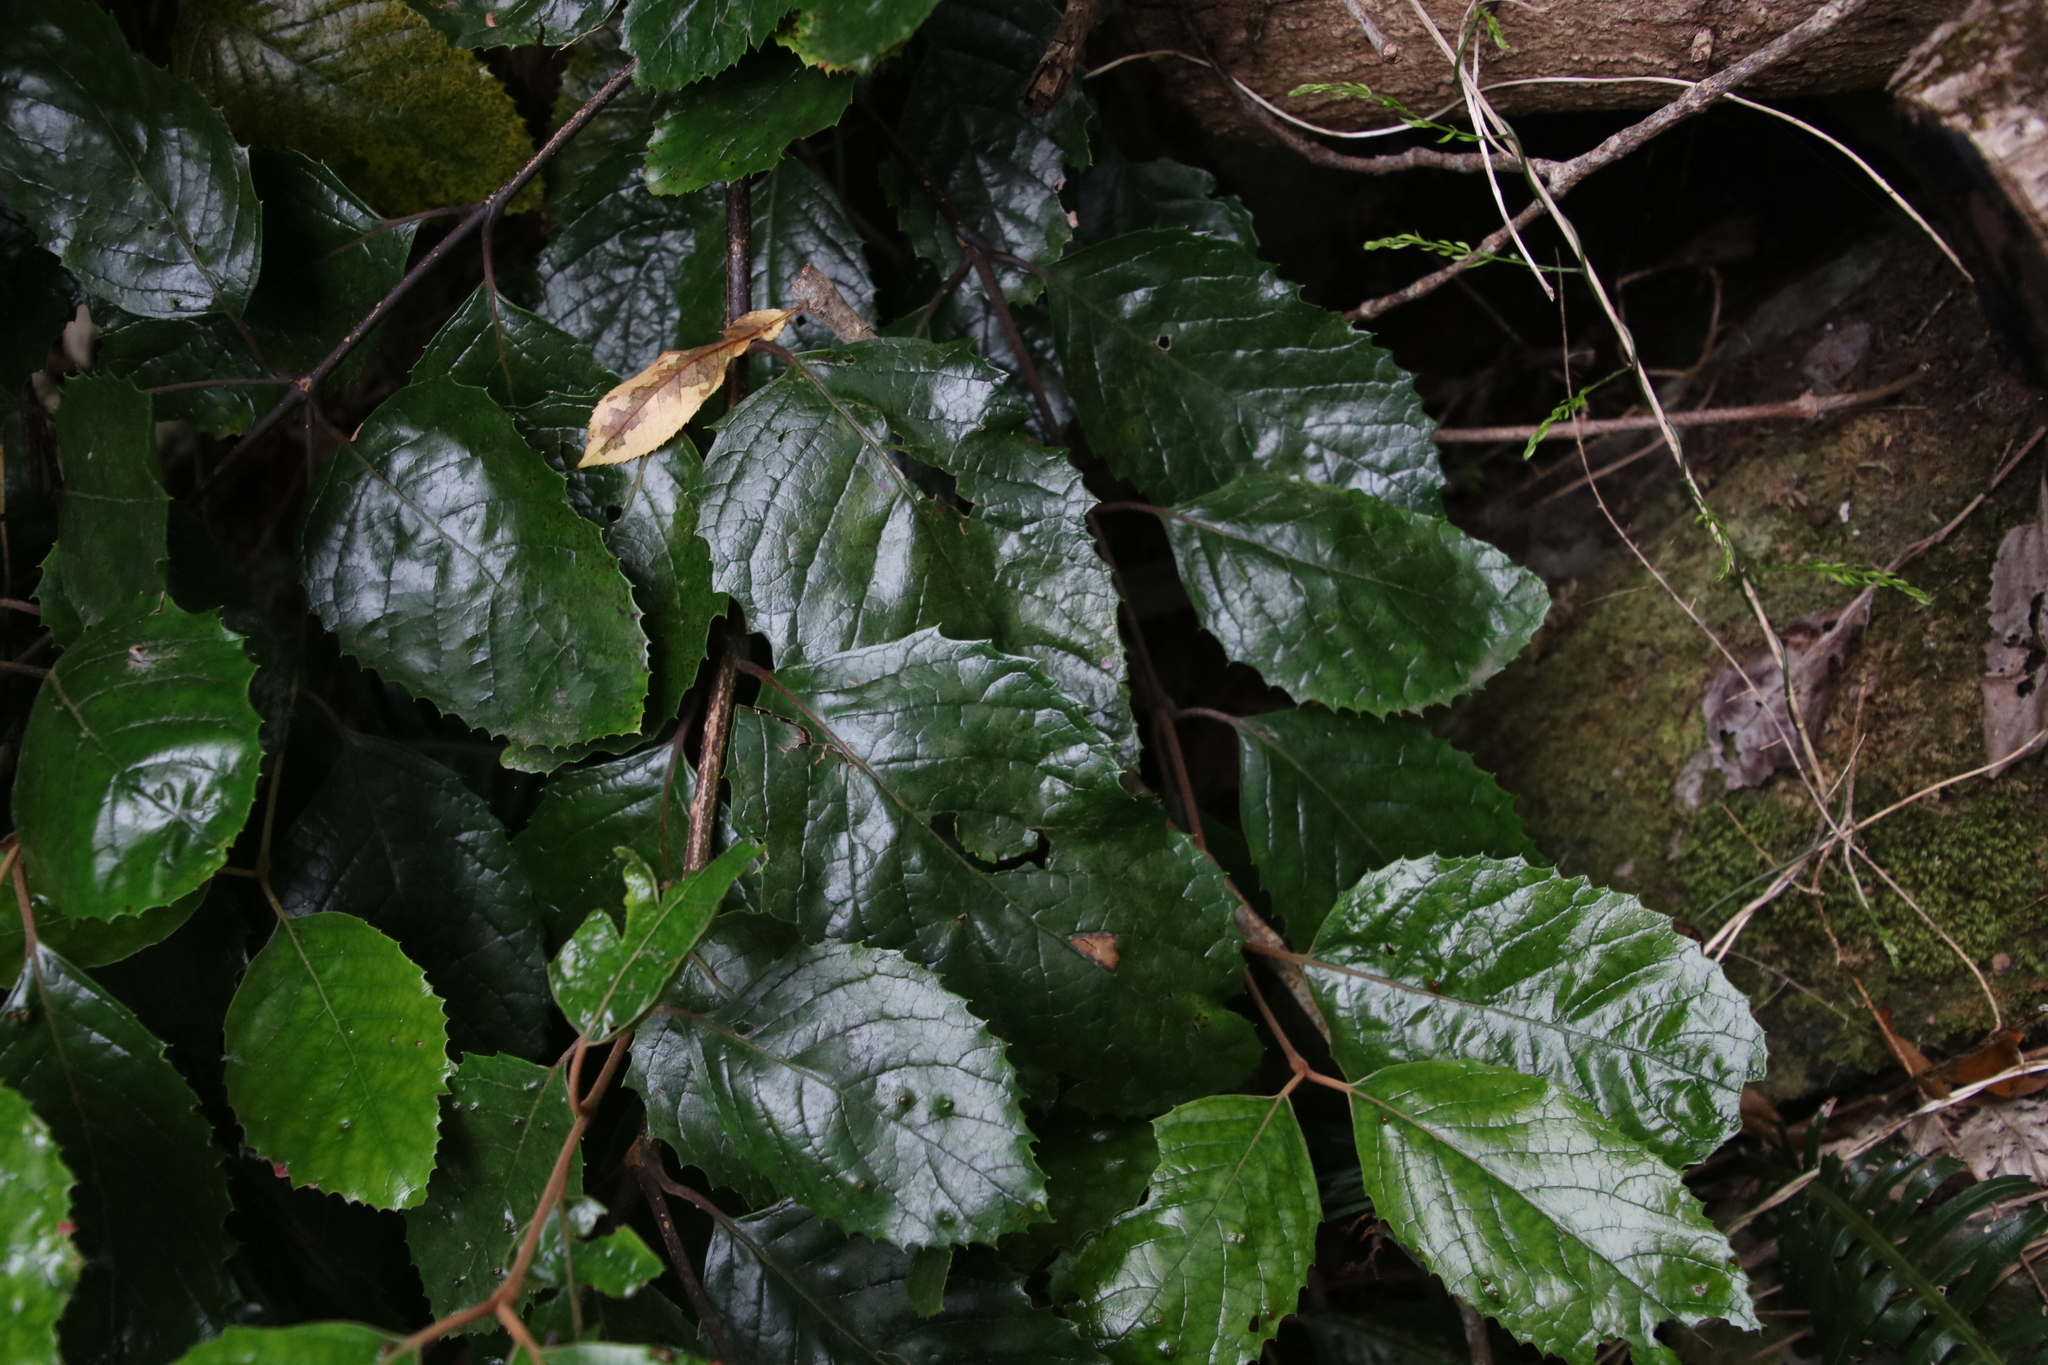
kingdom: Plantae
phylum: Tracheophyta
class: Magnoliopsida
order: Cornales
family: Curtisiaceae
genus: Curtisia
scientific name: Curtisia dentata
